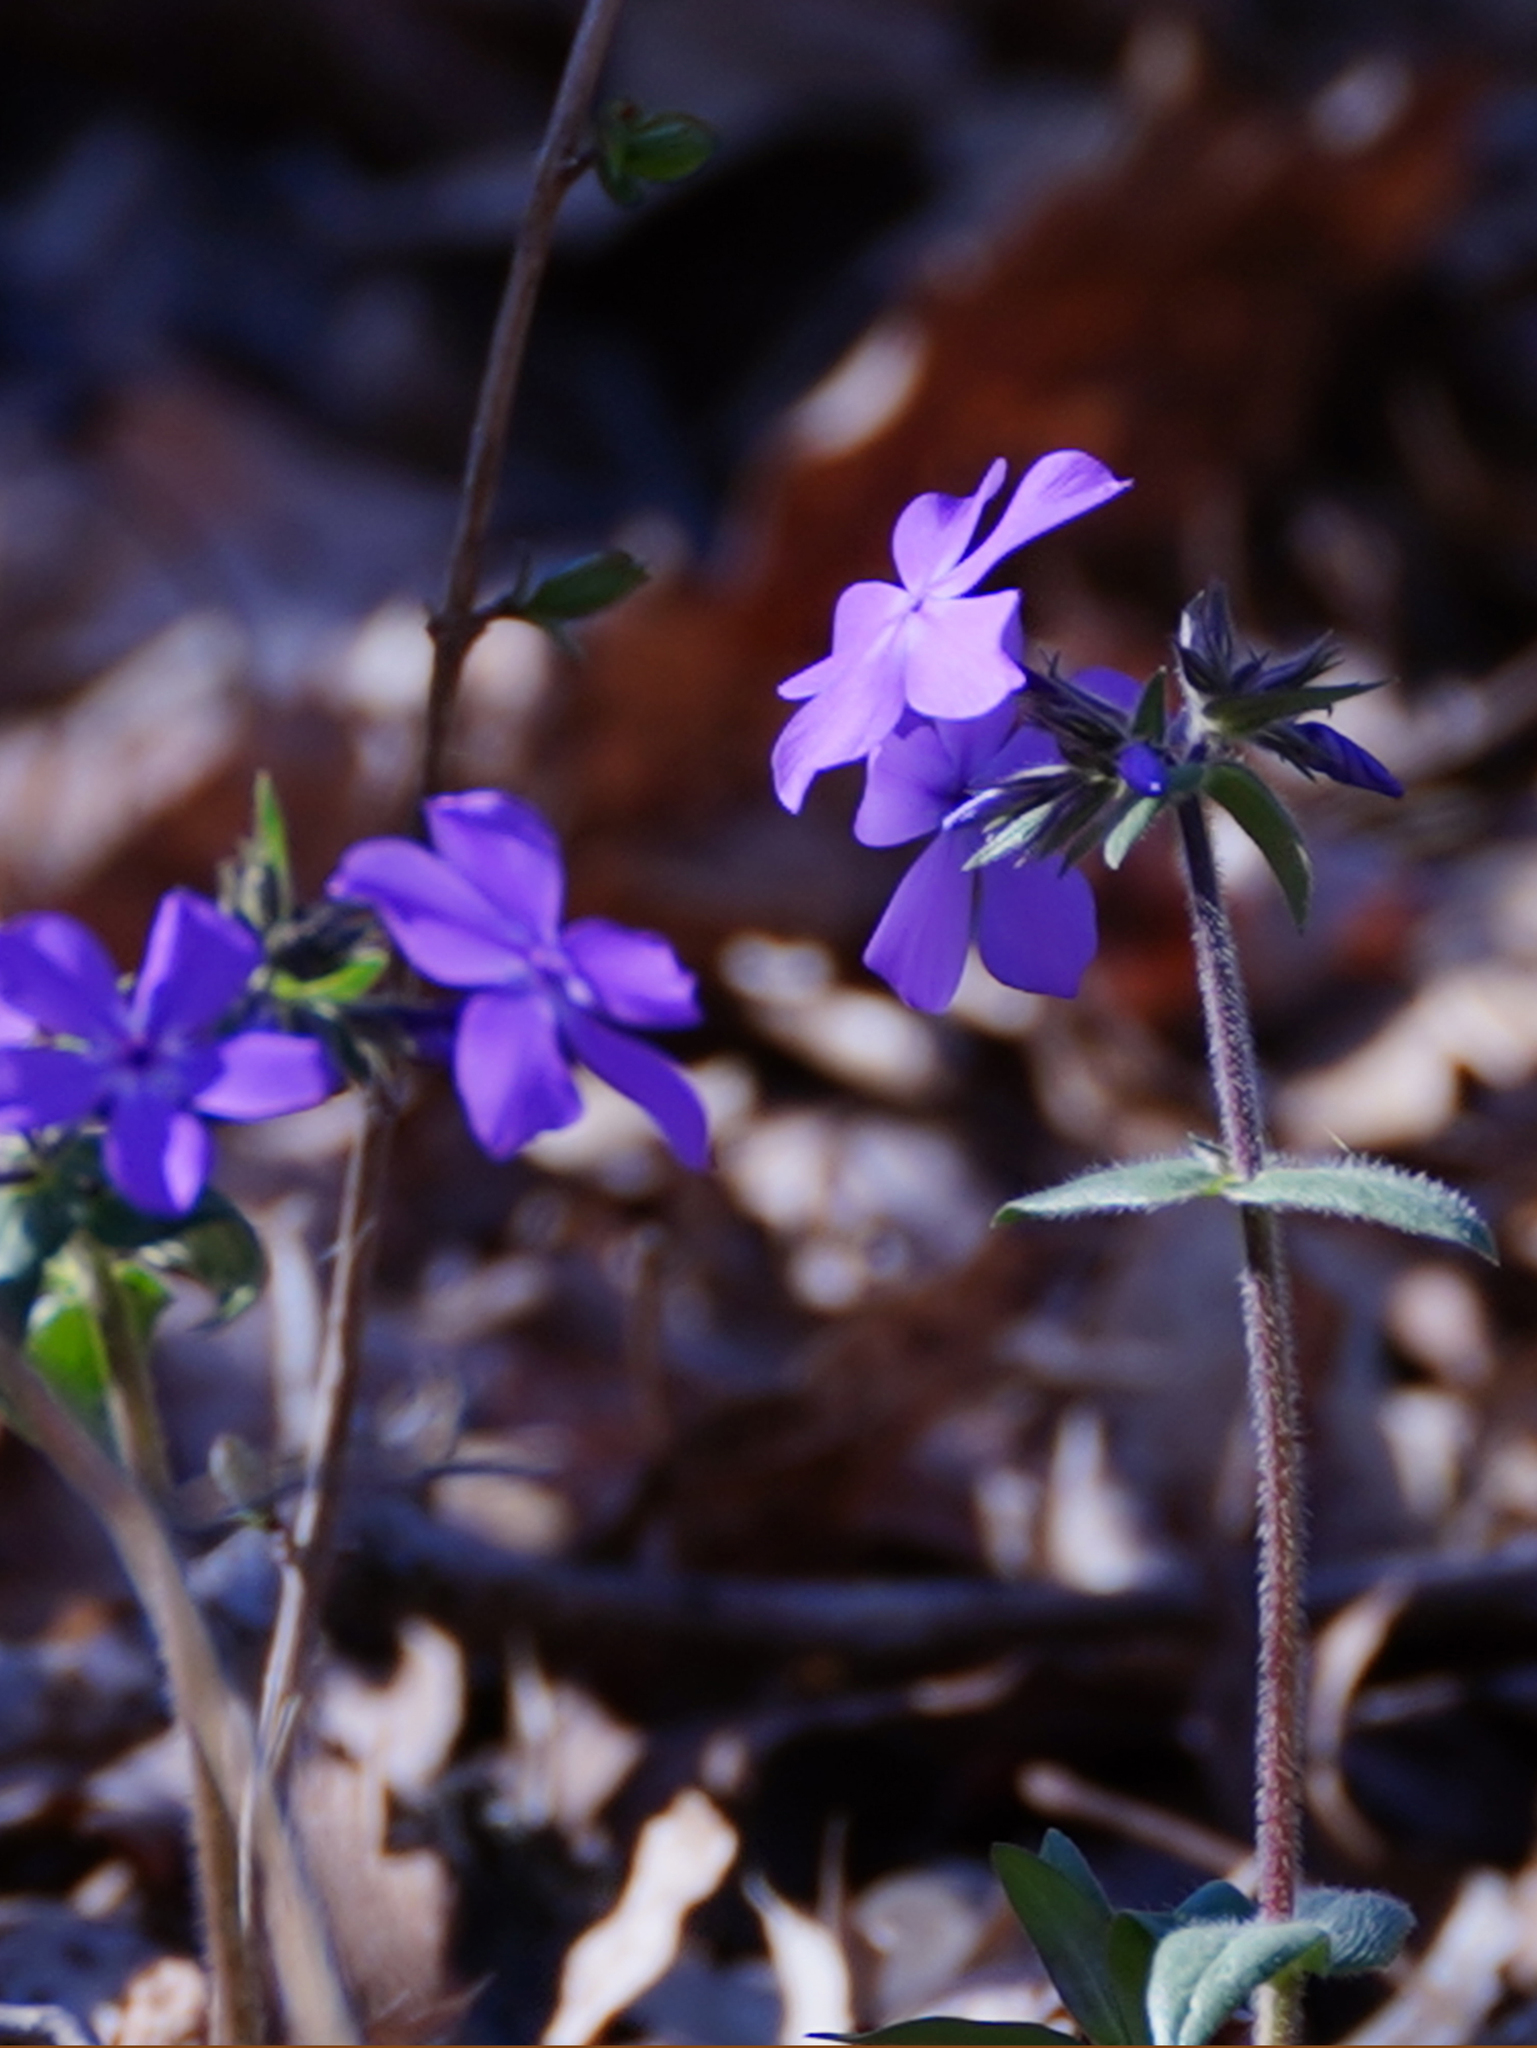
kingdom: Plantae
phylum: Tracheophyta
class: Magnoliopsida
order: Ericales
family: Polemoniaceae
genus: Phlox
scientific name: Phlox divaricata
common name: Blue phlox
